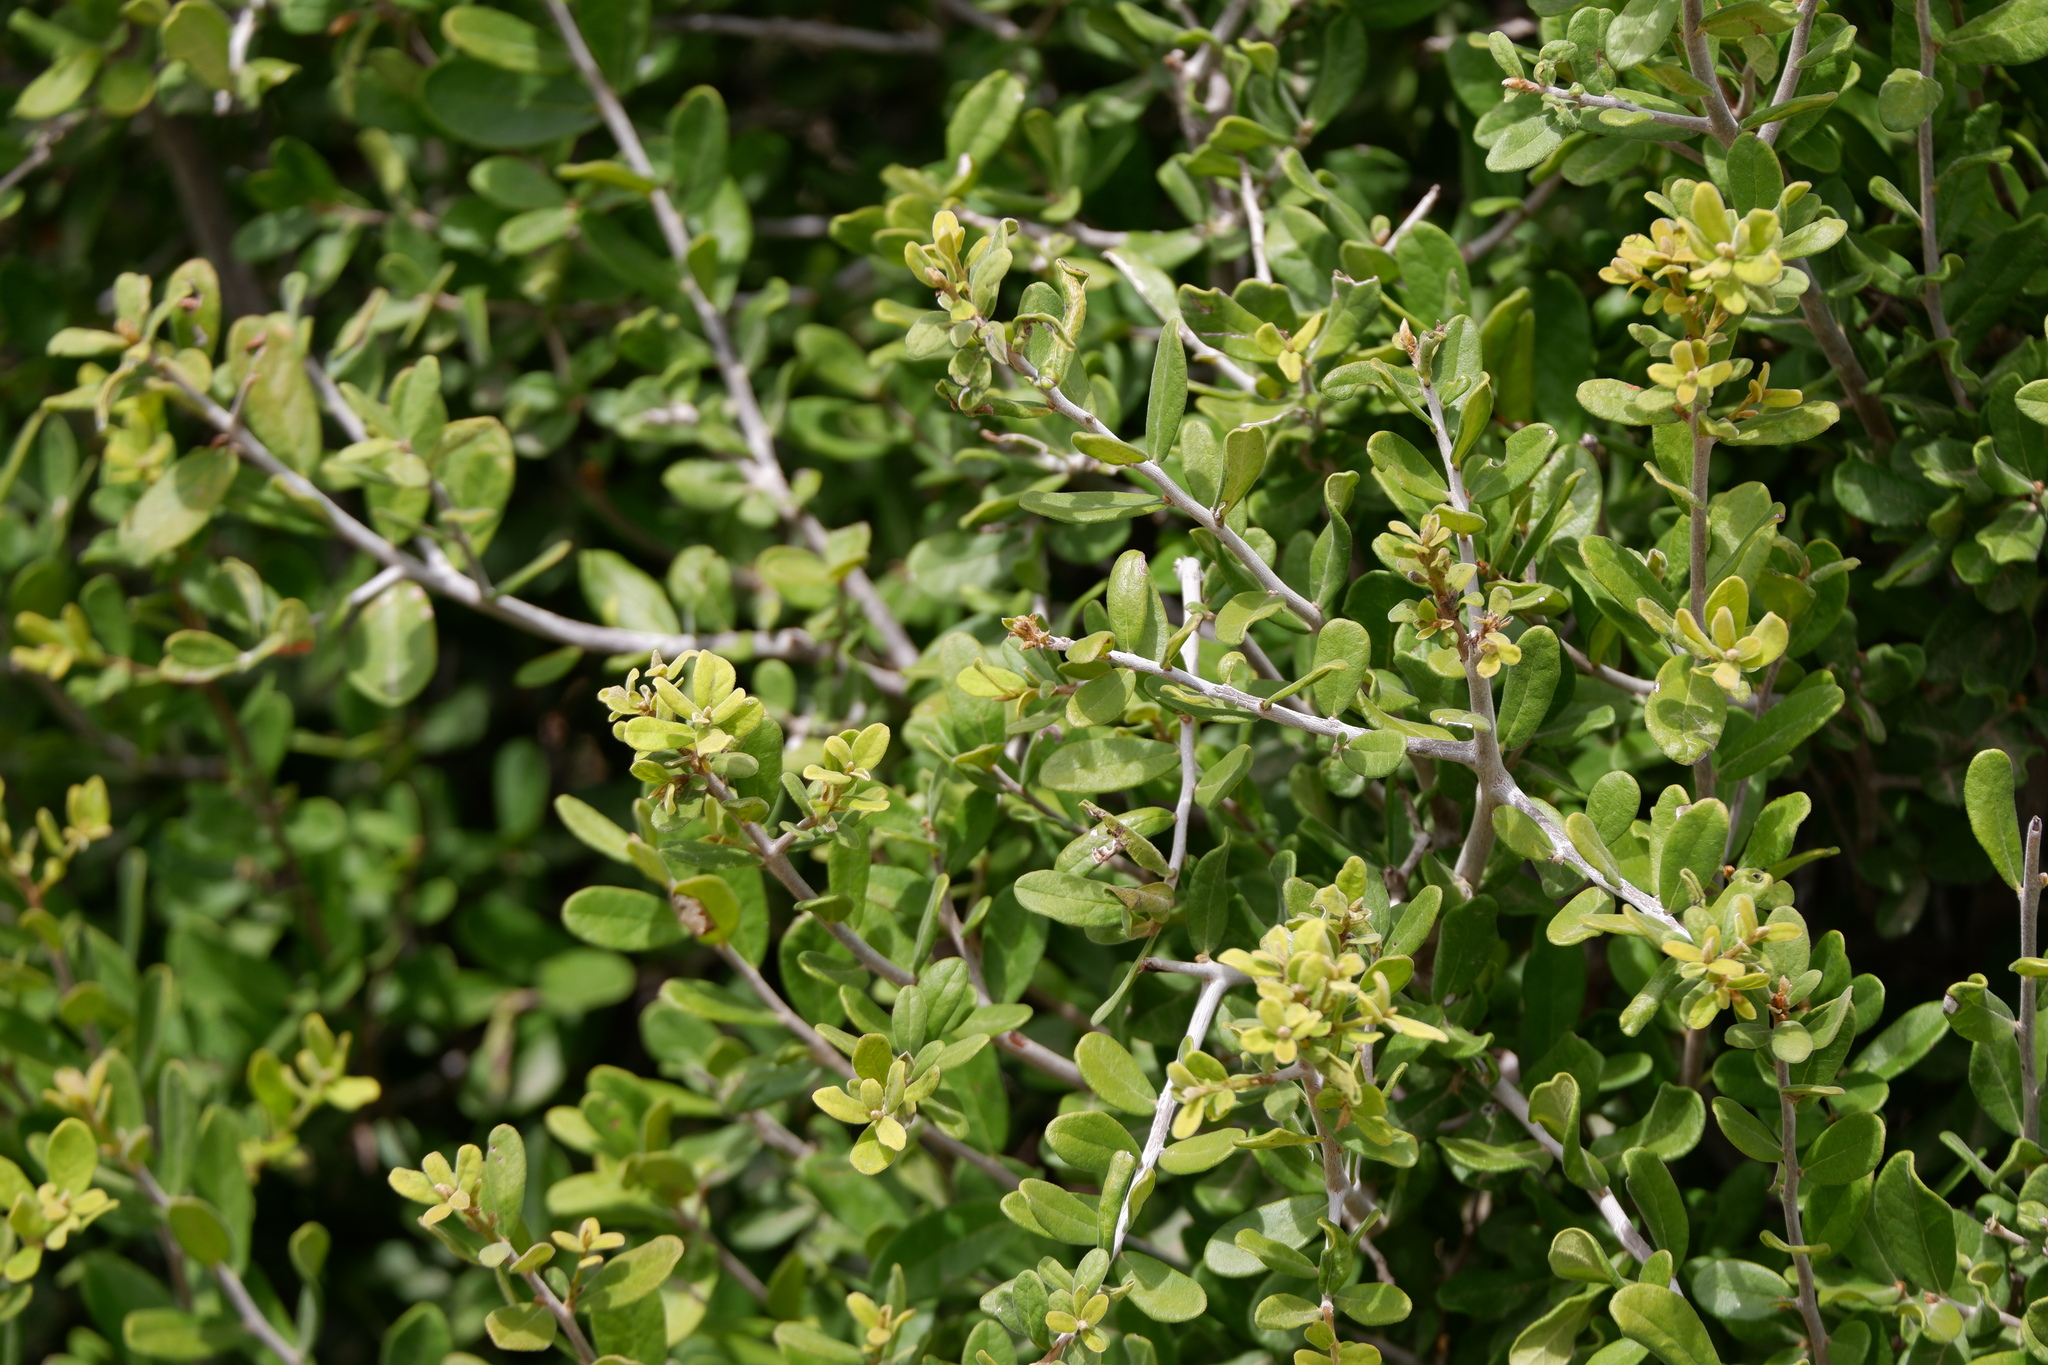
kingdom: Plantae
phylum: Tracheophyta
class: Magnoliopsida
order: Ericales
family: Ebenaceae
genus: Diospyros
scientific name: Diospyros texana
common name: Texas persimmon
